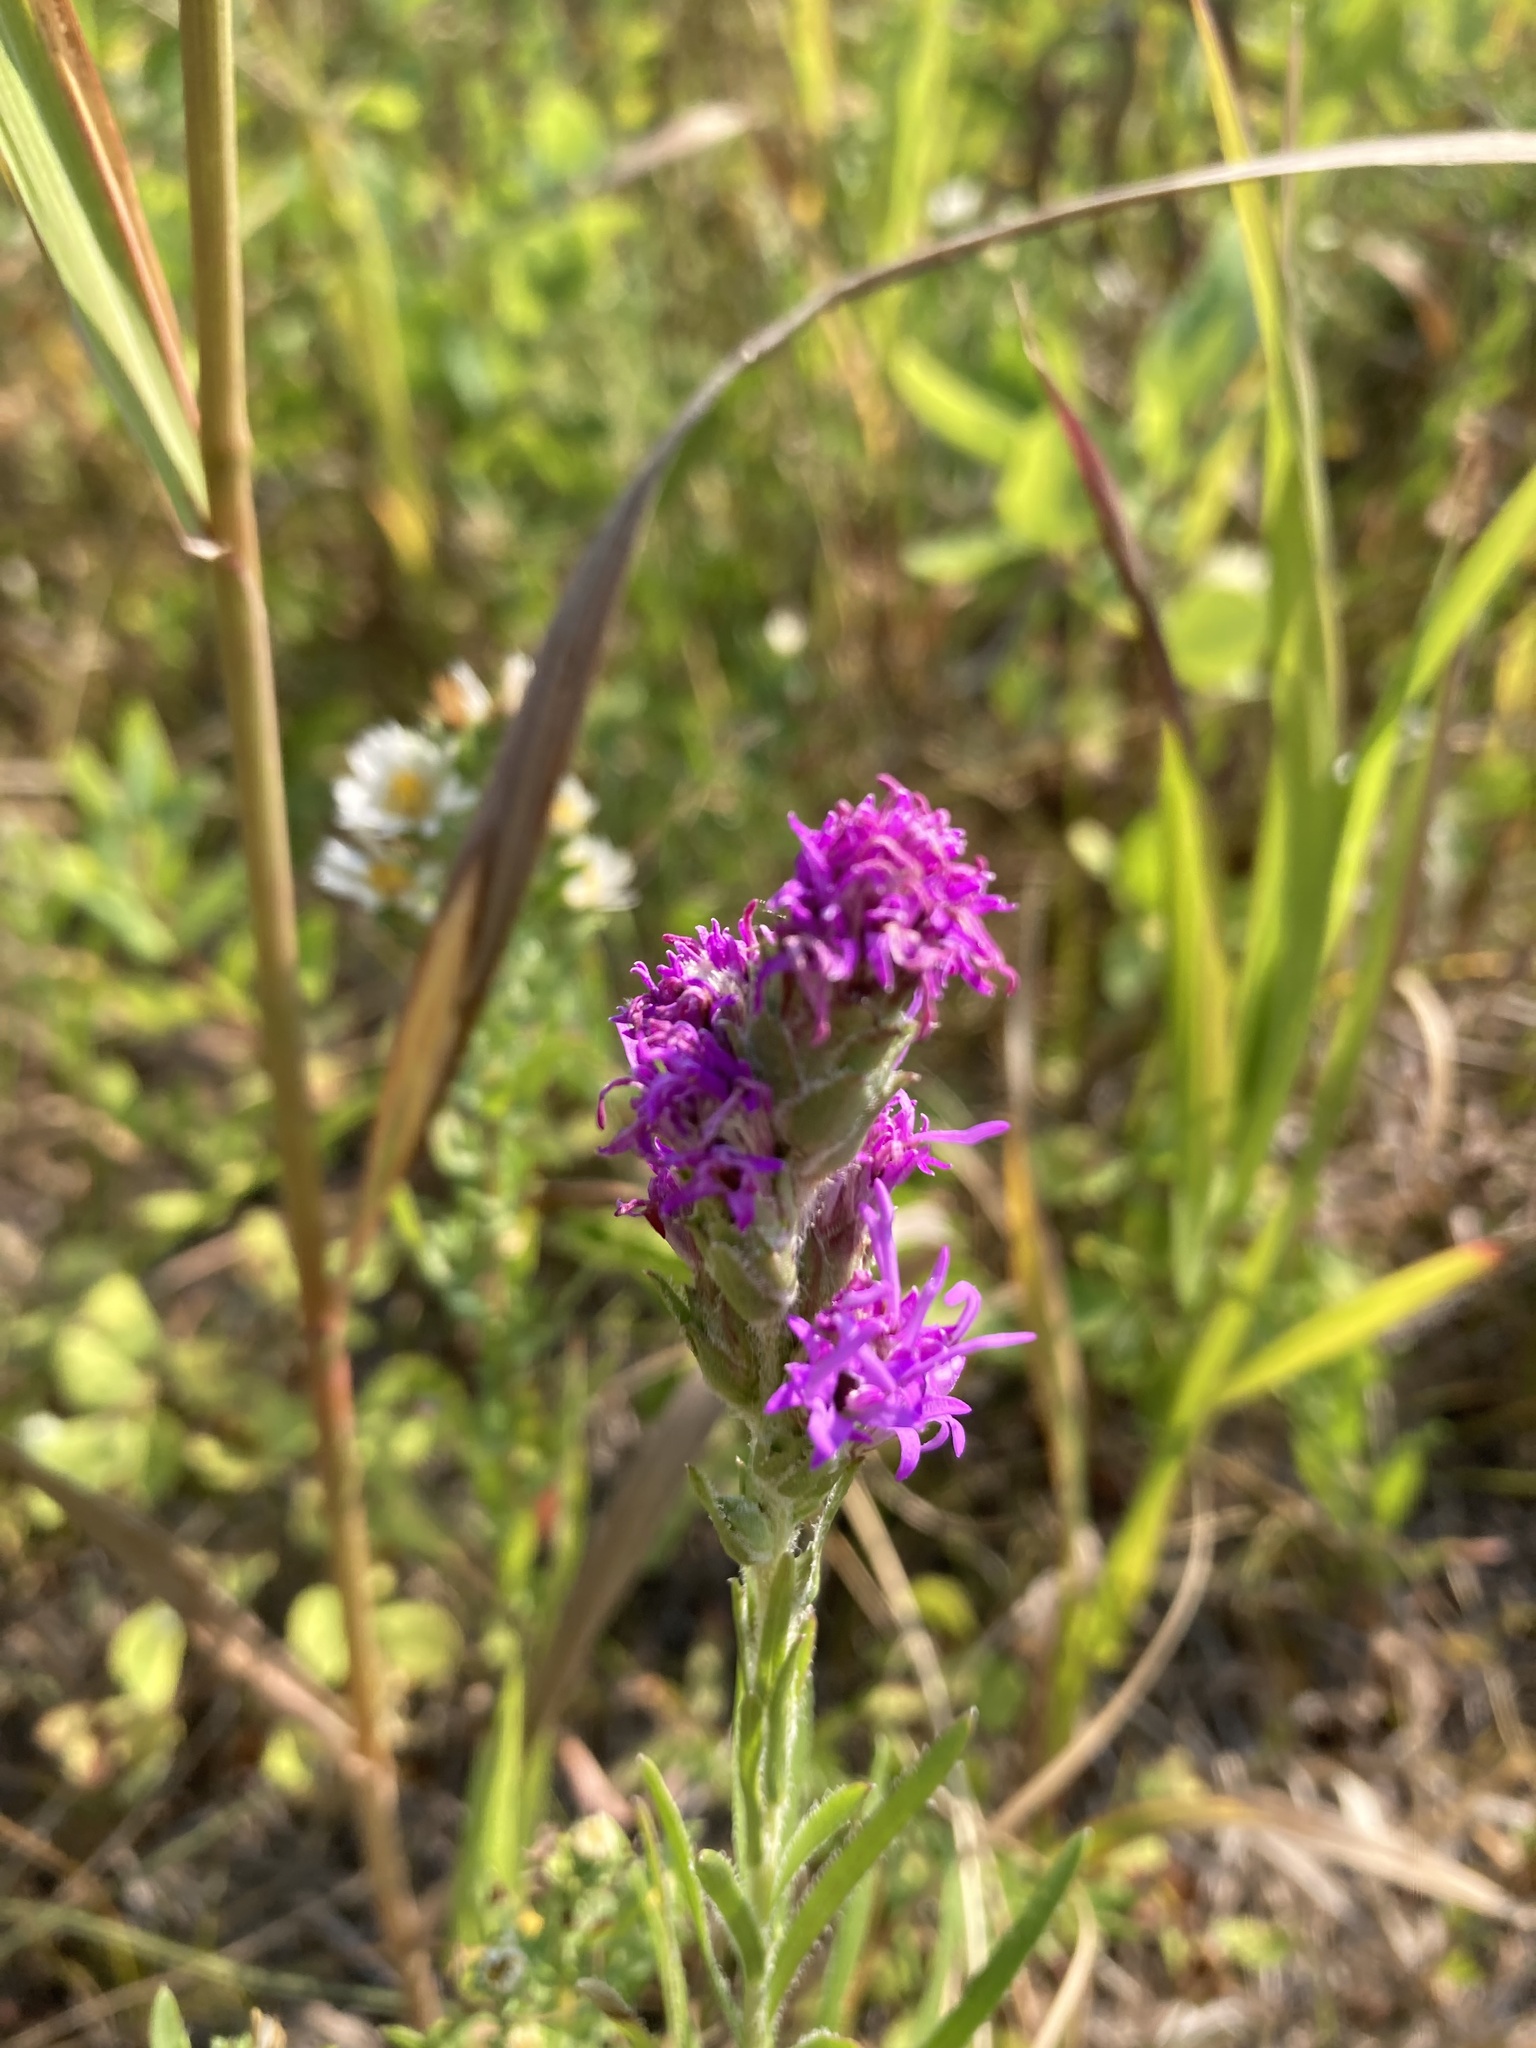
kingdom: Plantae
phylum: Tracheophyta
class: Magnoliopsida
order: Asterales
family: Asteraceae
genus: Liatris
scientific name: Liatris punctata
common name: Dotted gayfeather
